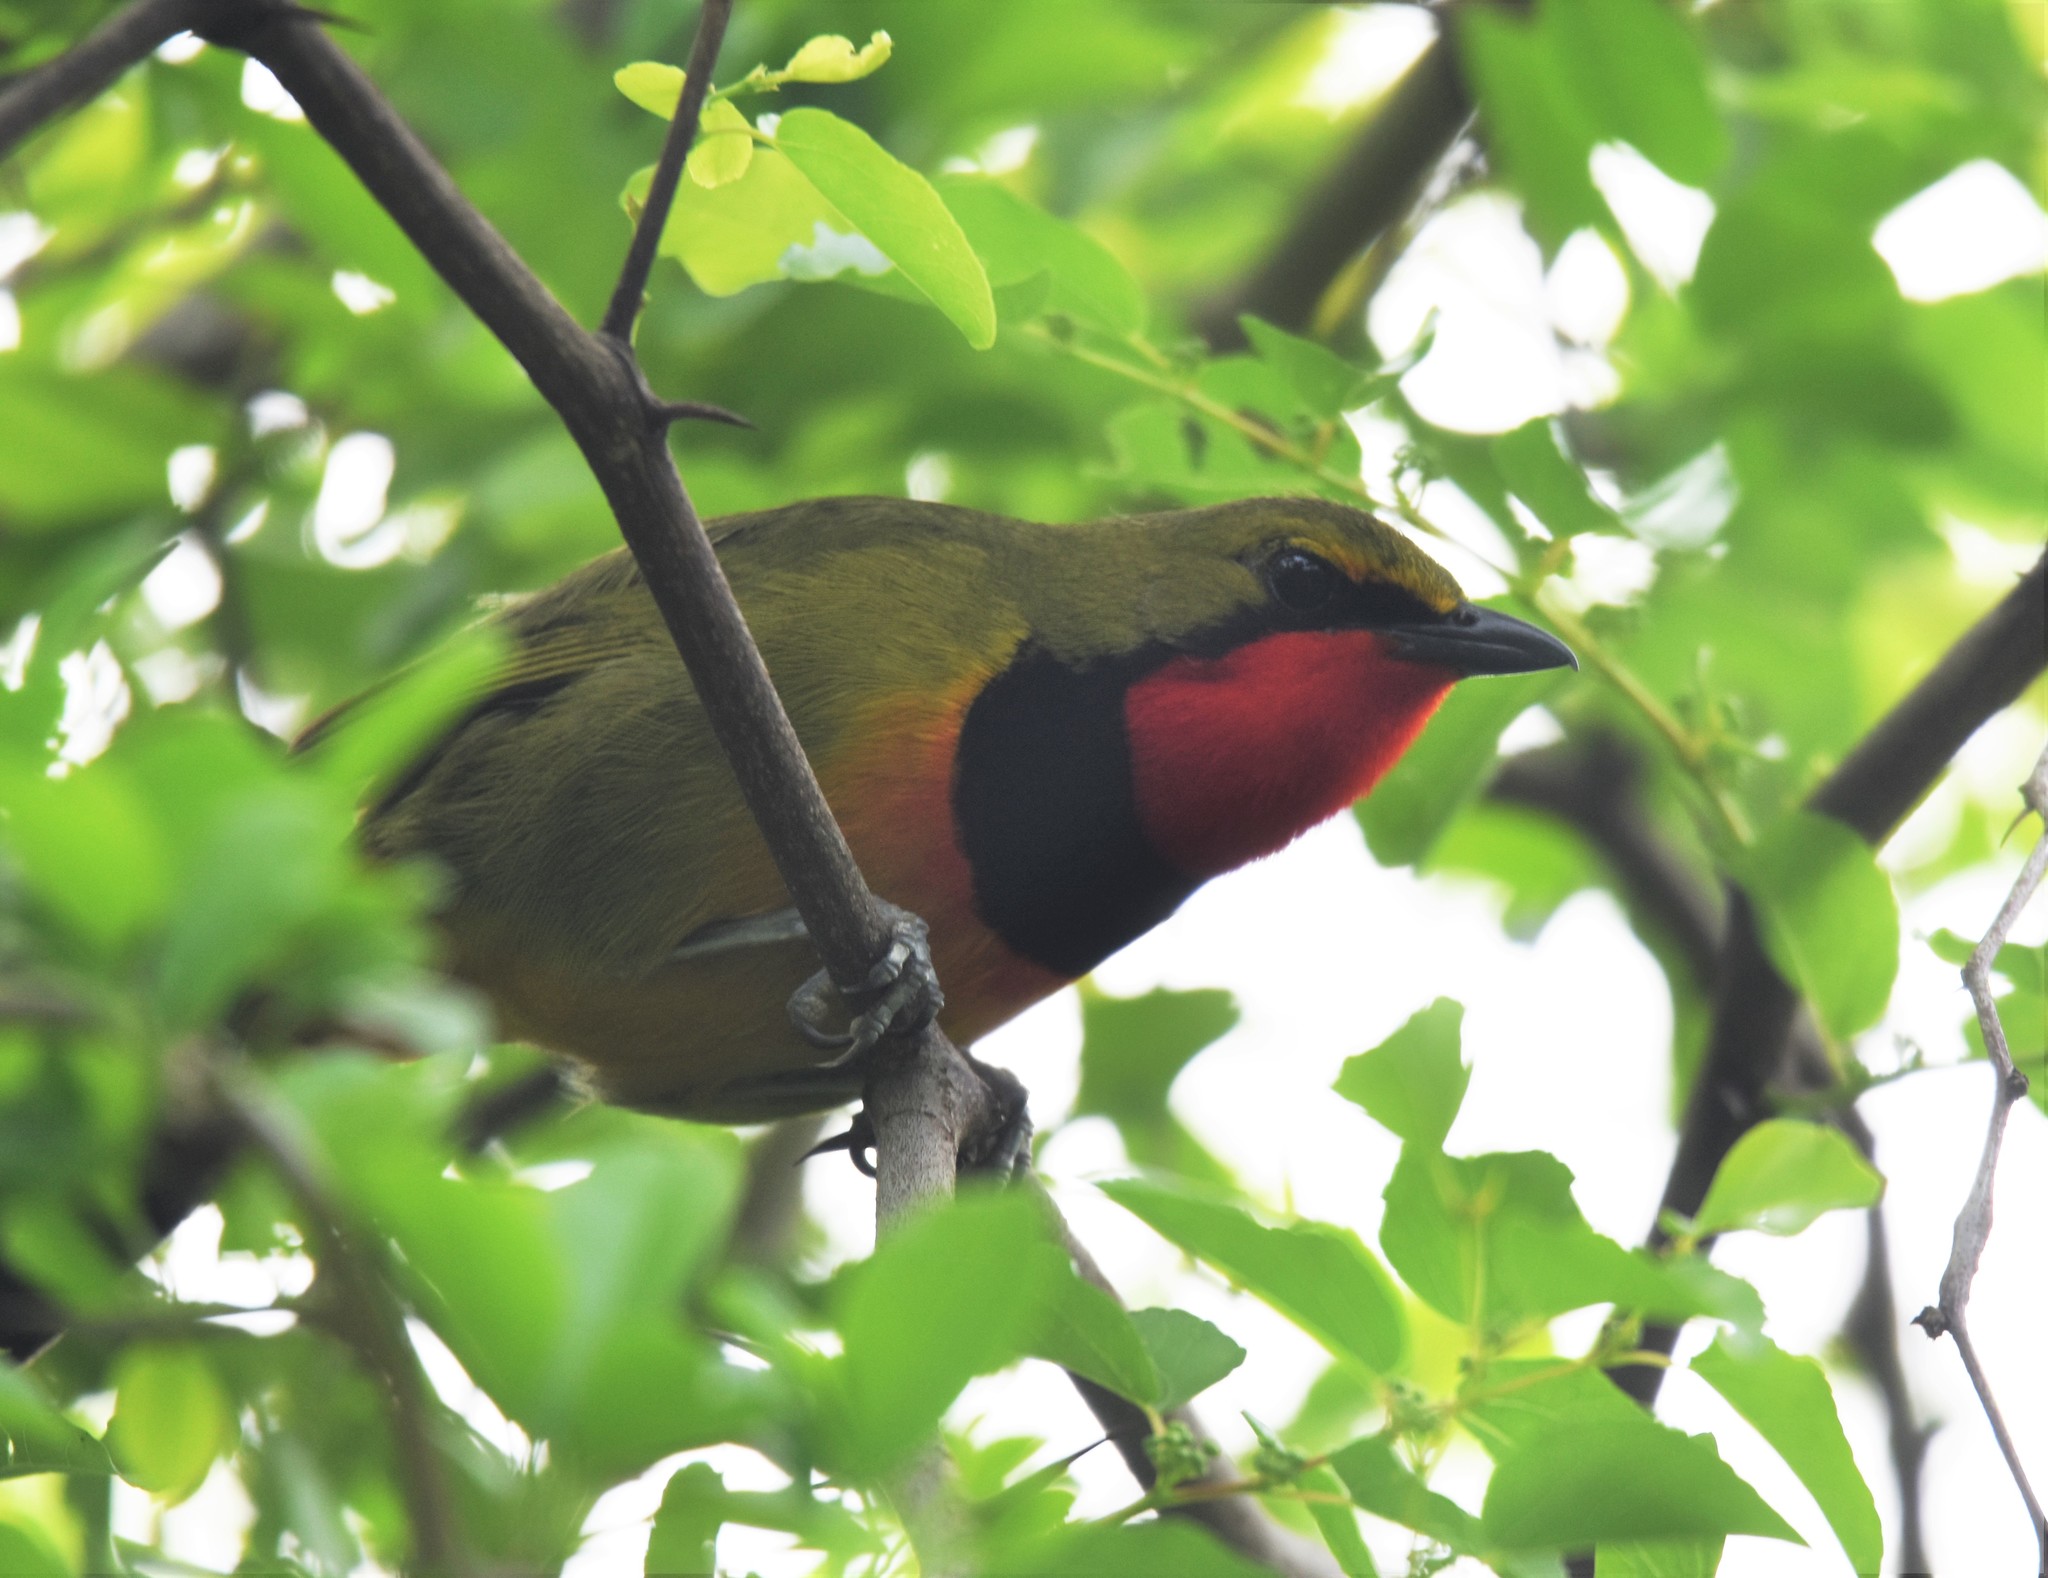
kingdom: Animalia
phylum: Chordata
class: Aves
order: Passeriformes
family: Malaconotidae
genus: Telophorus
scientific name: Telophorus viridis
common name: Gorgeous bushshrike
